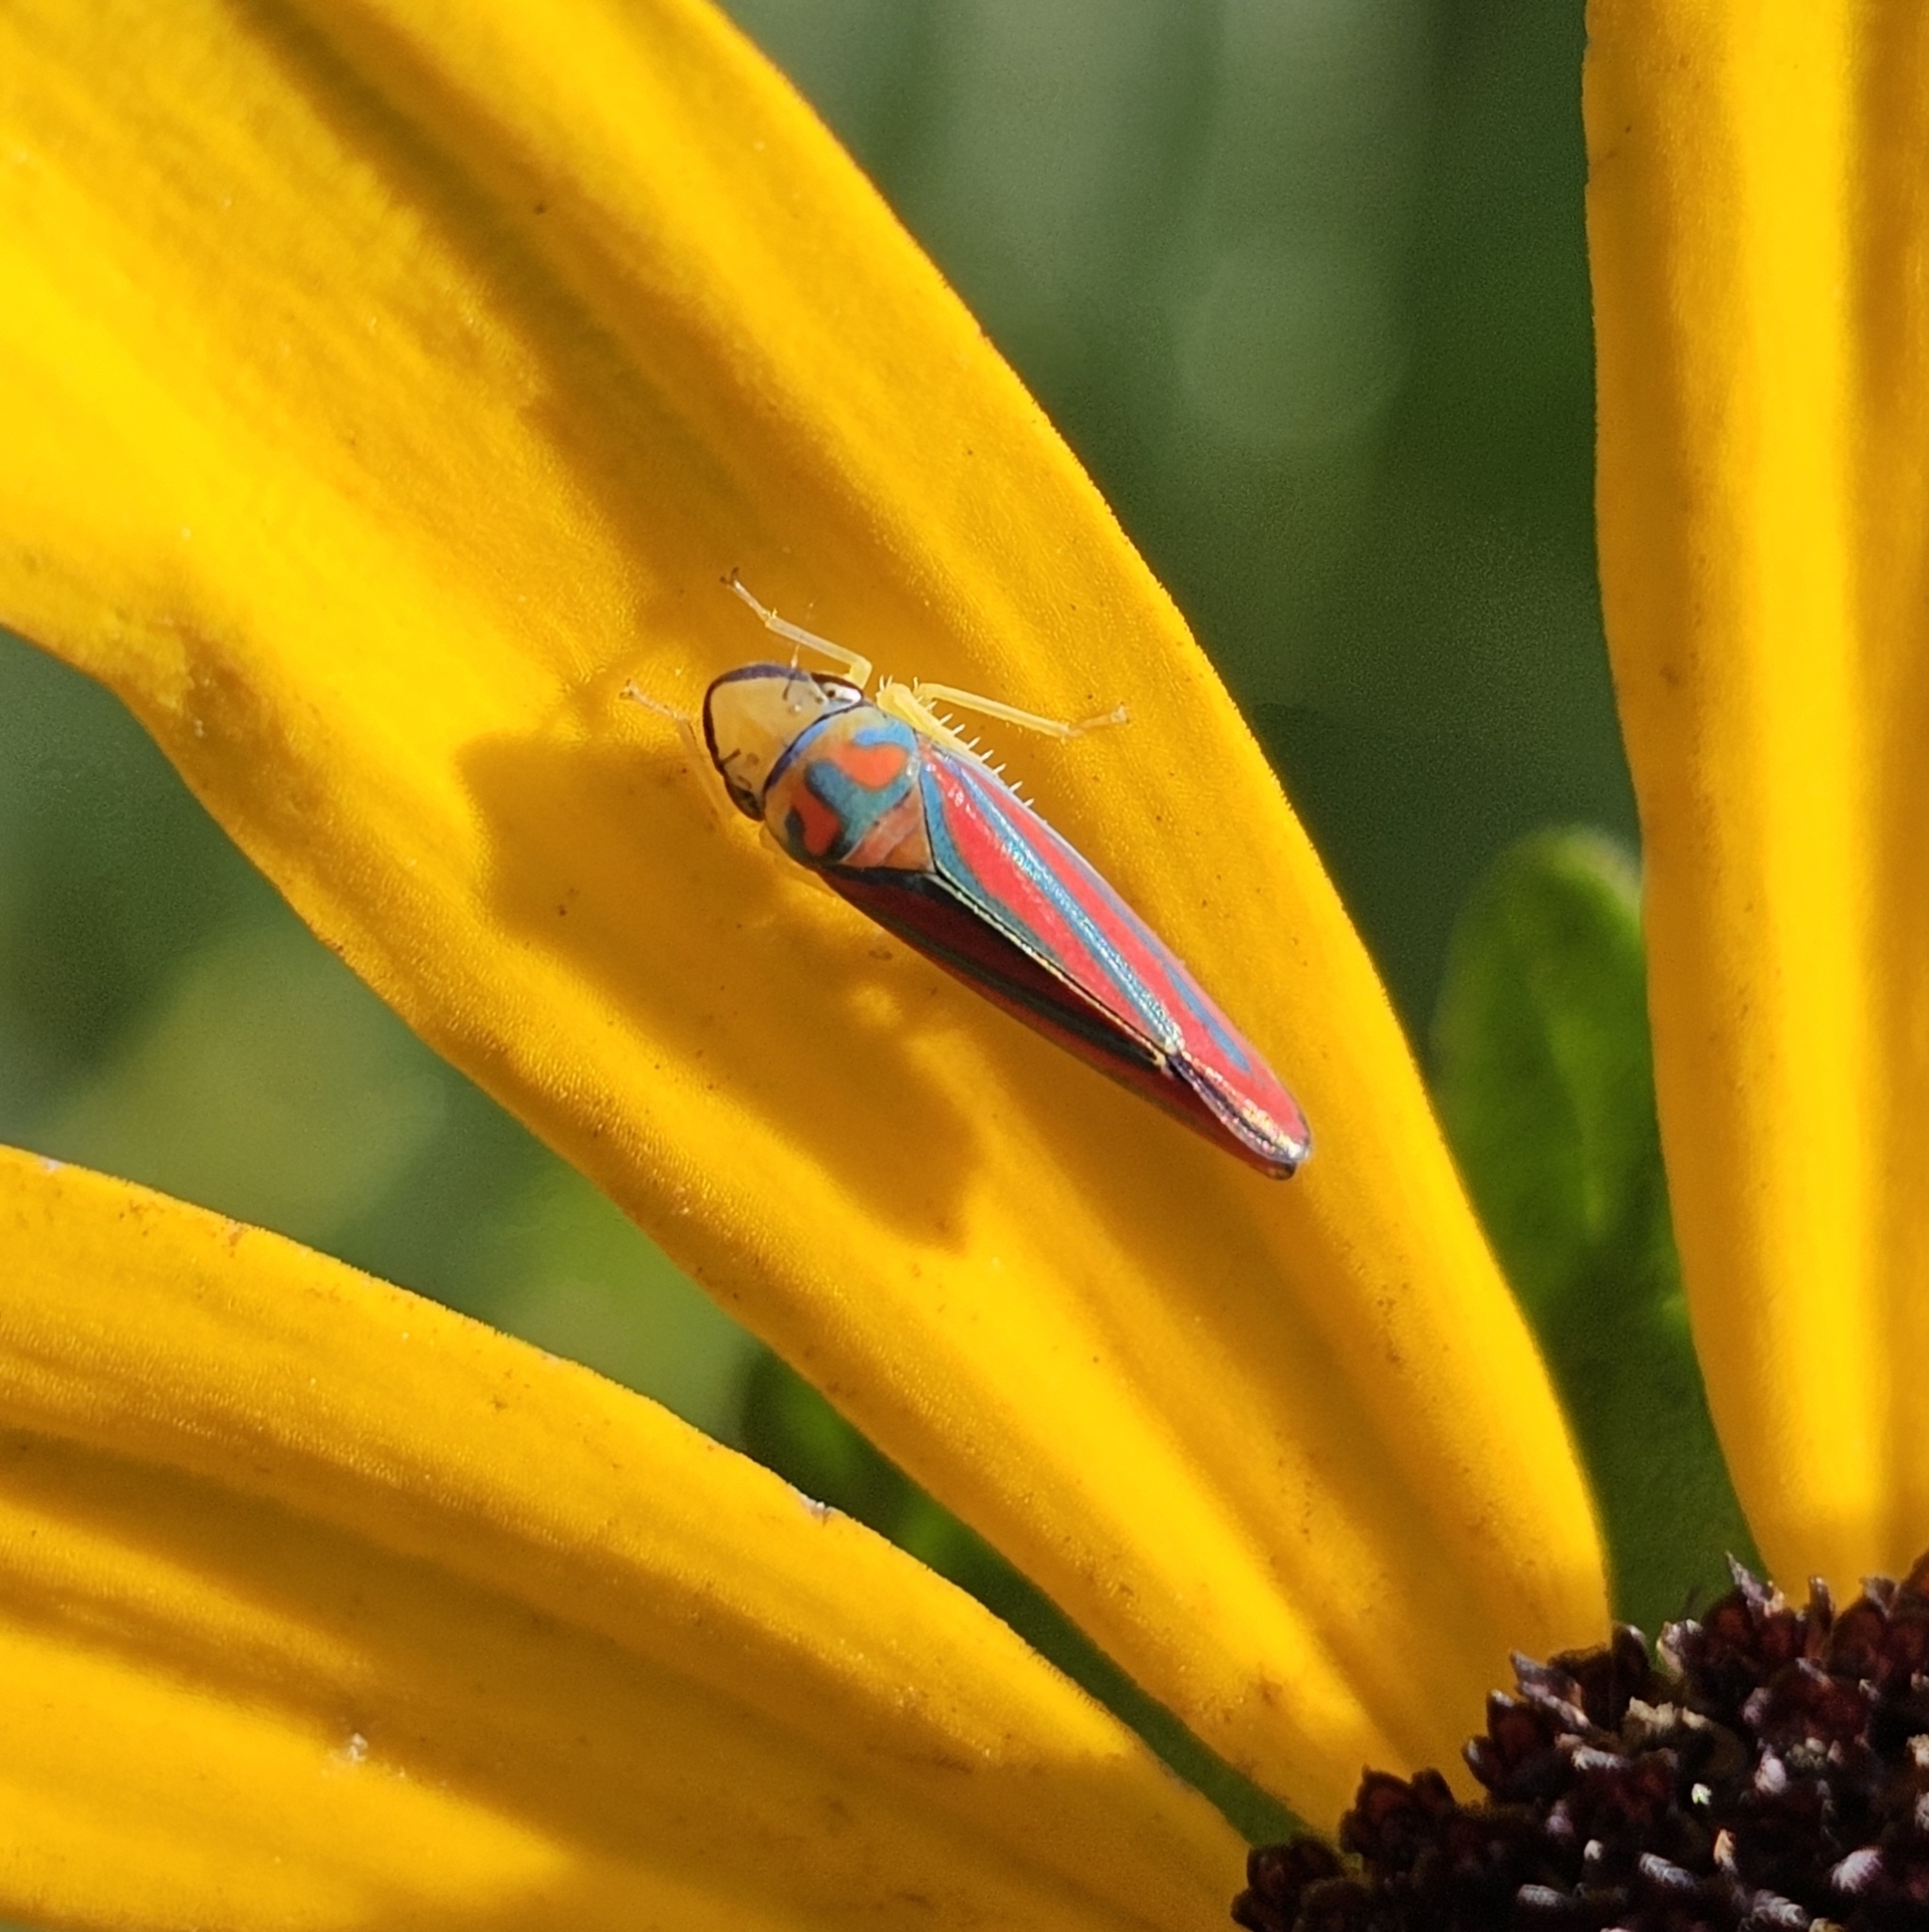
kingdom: Animalia
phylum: Arthropoda
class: Insecta
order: Hemiptera
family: Cicadellidae
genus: Graphocephala
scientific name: Graphocephala coccinea
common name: Candy-striped leafhopper
